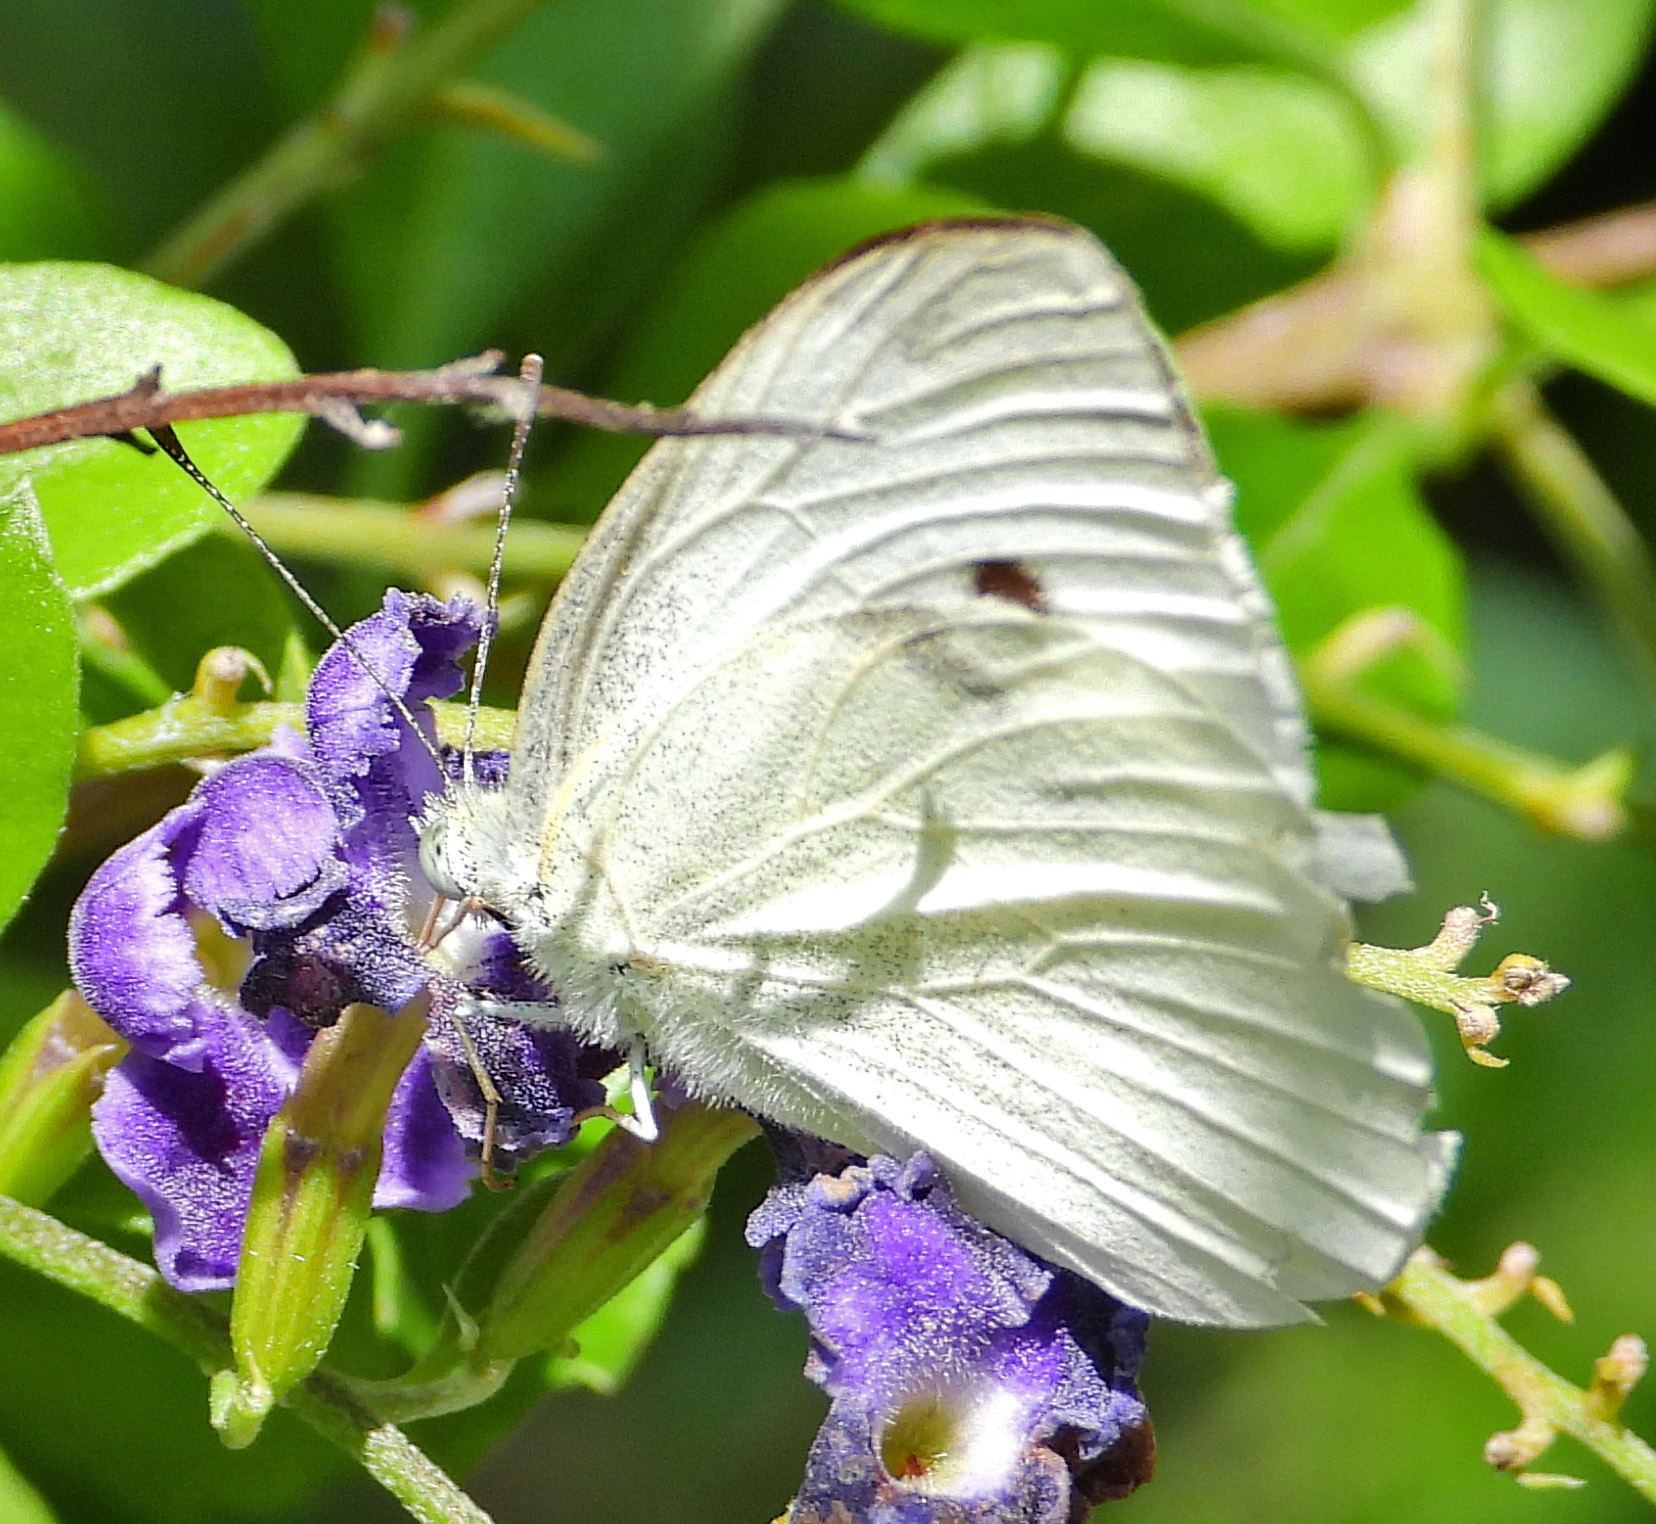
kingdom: Animalia
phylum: Arthropoda
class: Insecta
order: Lepidoptera
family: Pieridae
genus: Pieris
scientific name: Pieris rapae
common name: Small white
